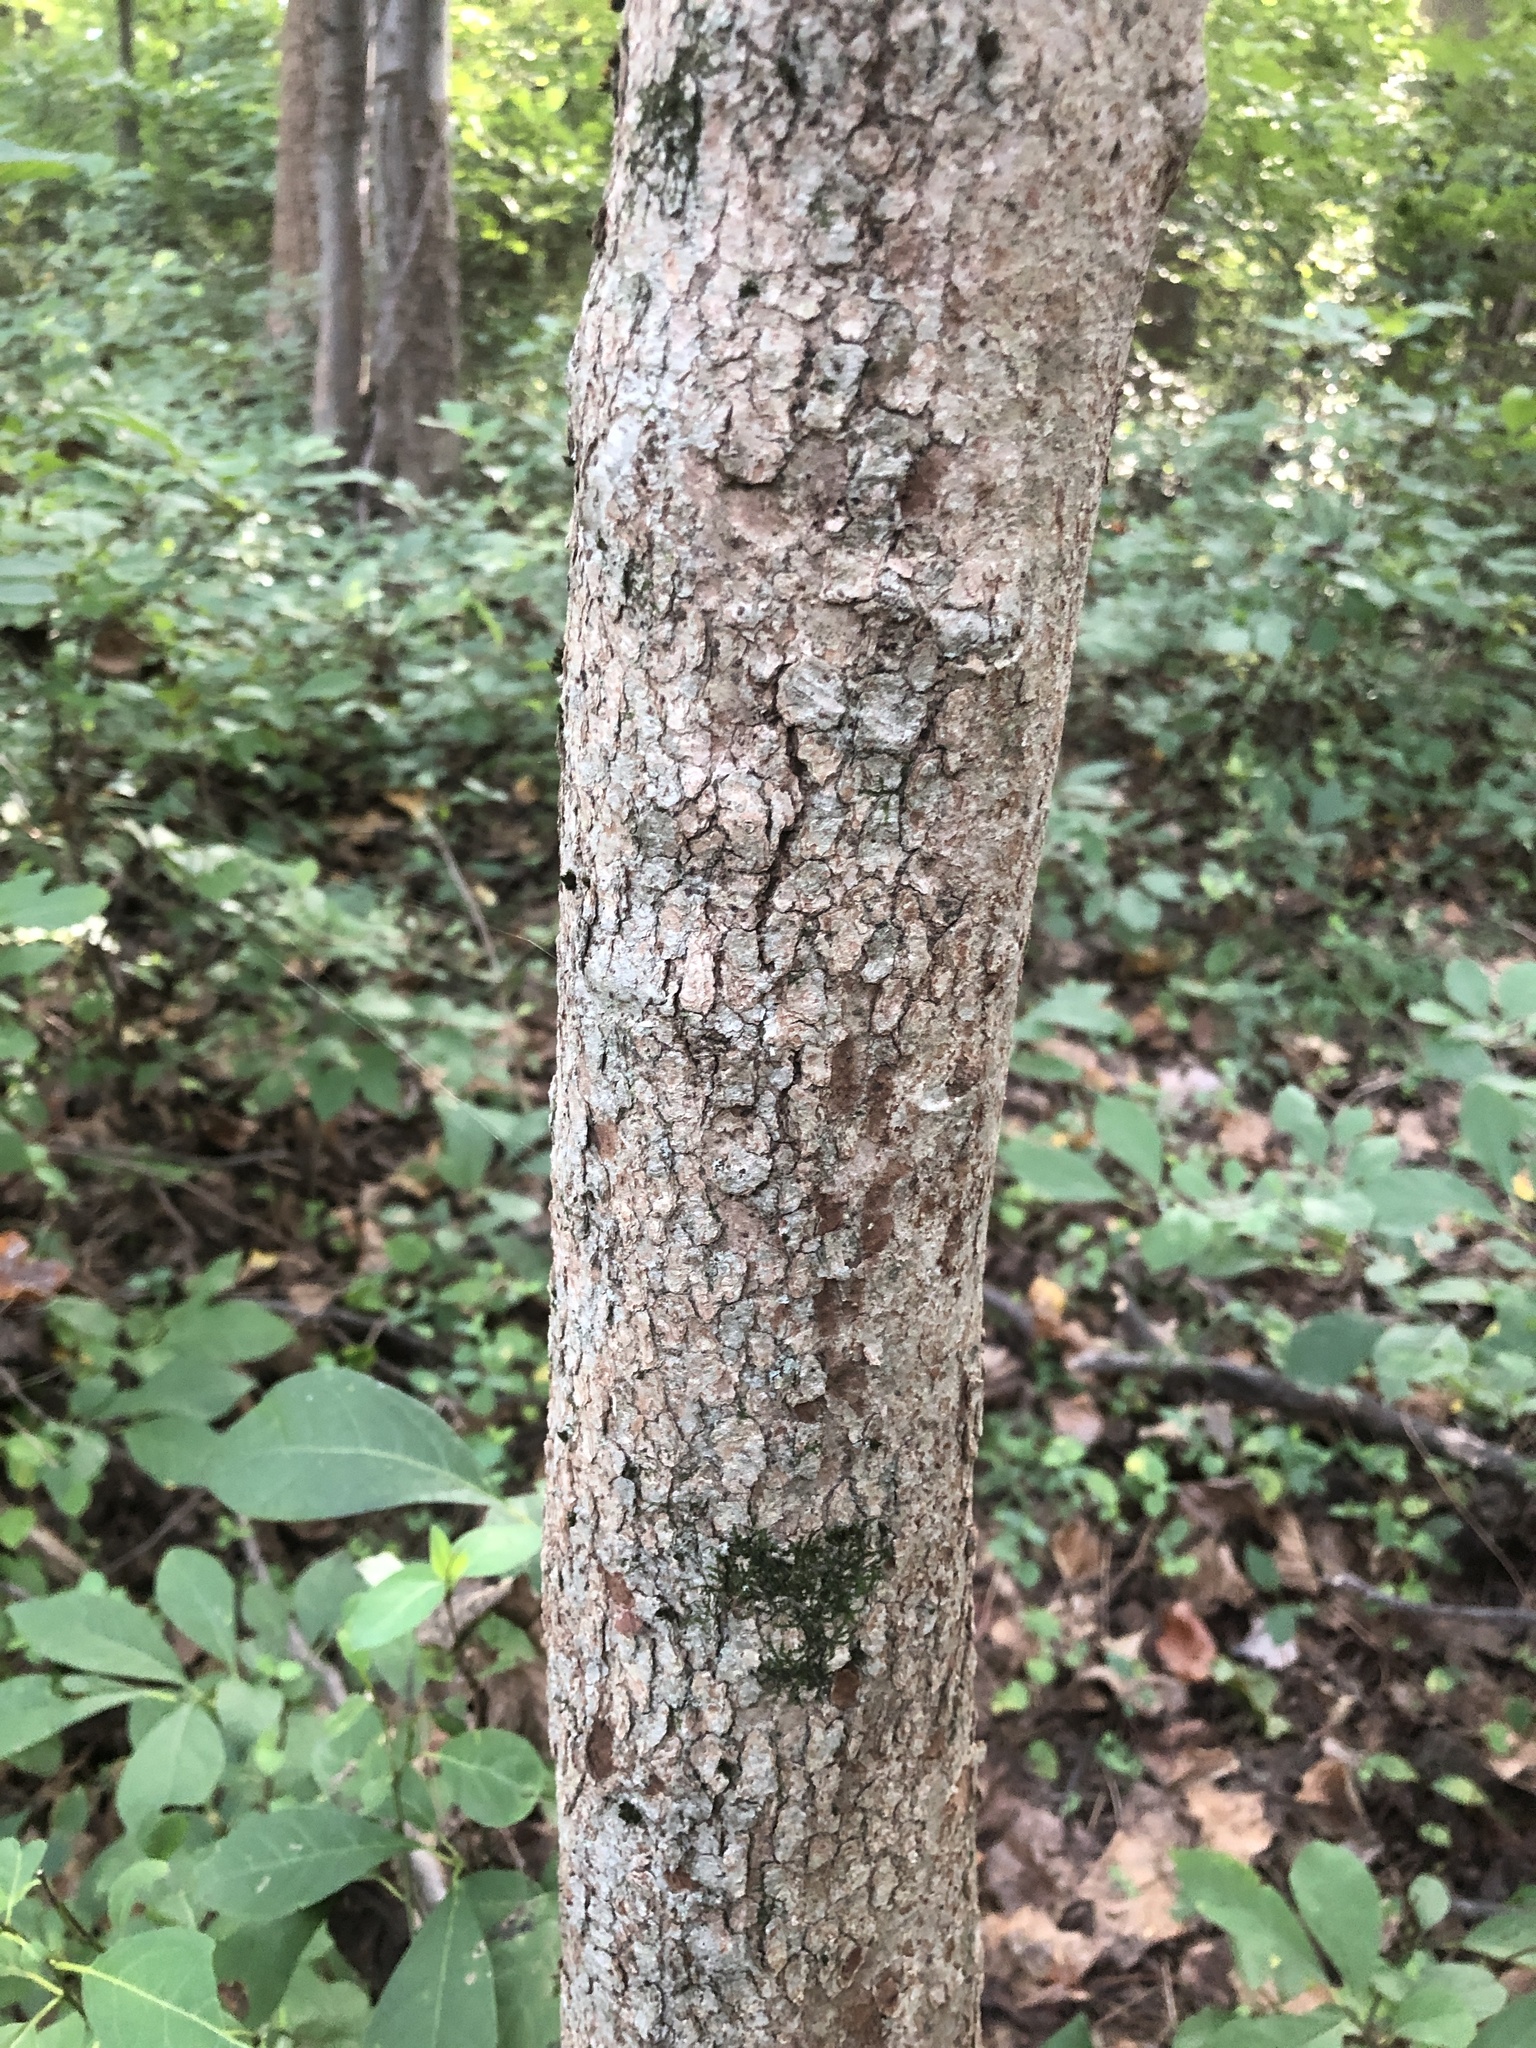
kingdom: Plantae
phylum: Tracheophyta
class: Magnoliopsida
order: Cornales
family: Cornaceae
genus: Cornus
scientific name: Cornus florida
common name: Flowering dogwood
